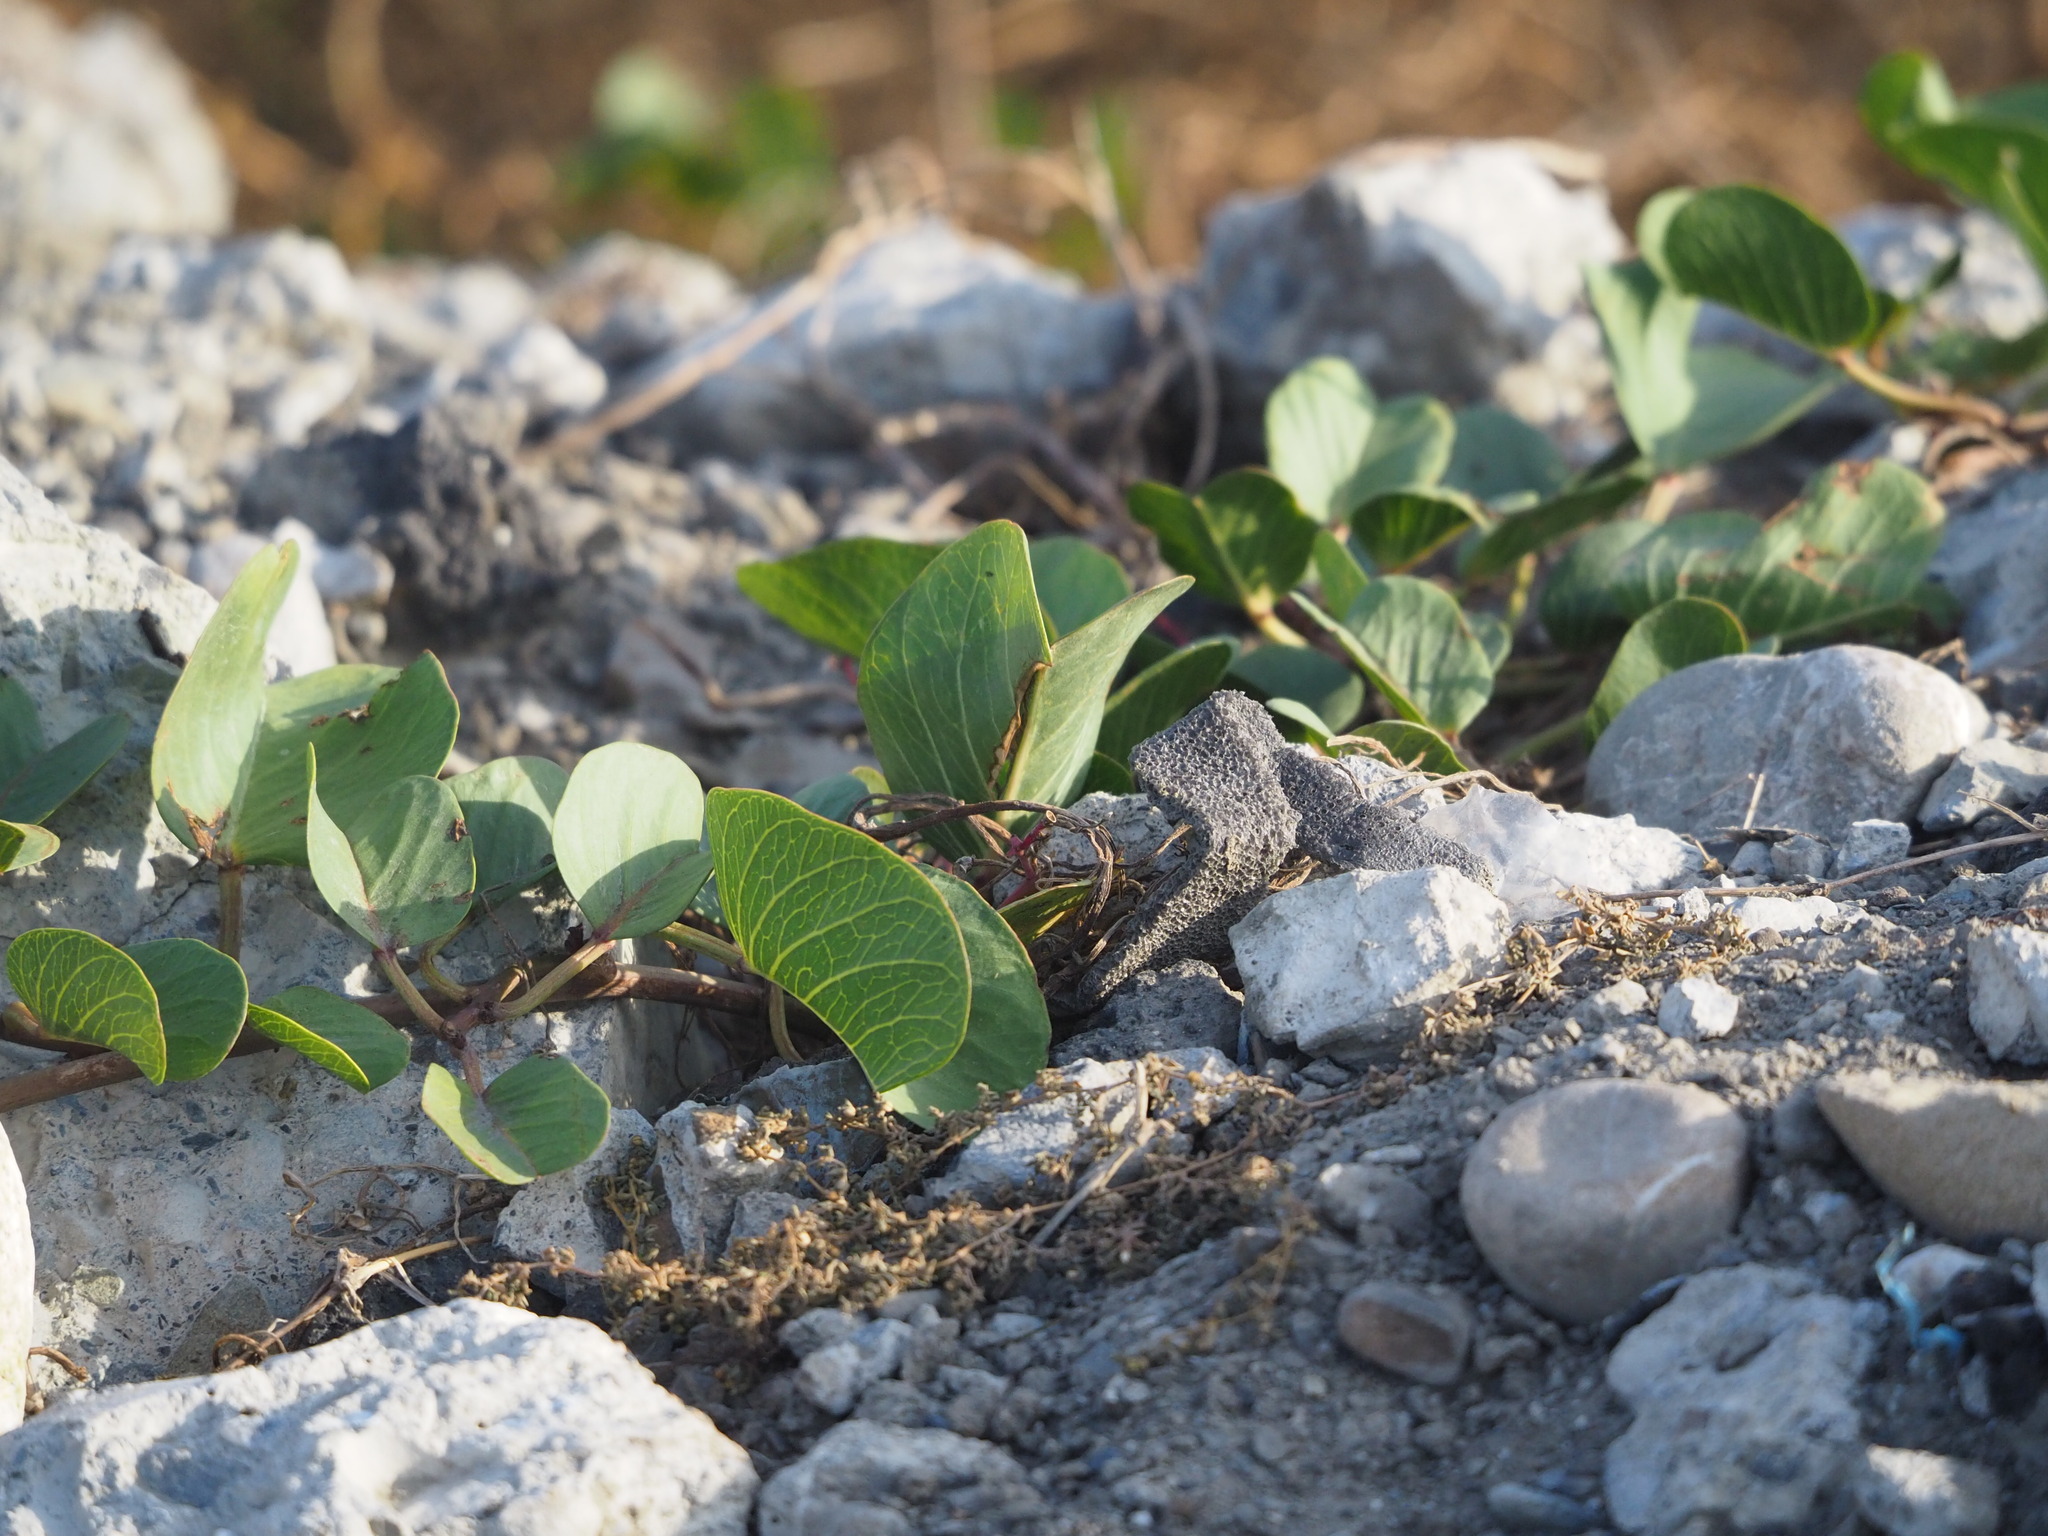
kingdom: Plantae
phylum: Tracheophyta
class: Magnoliopsida
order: Solanales
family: Convolvulaceae
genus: Ipomoea
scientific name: Ipomoea pes-caprae
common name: Beach morning glory
